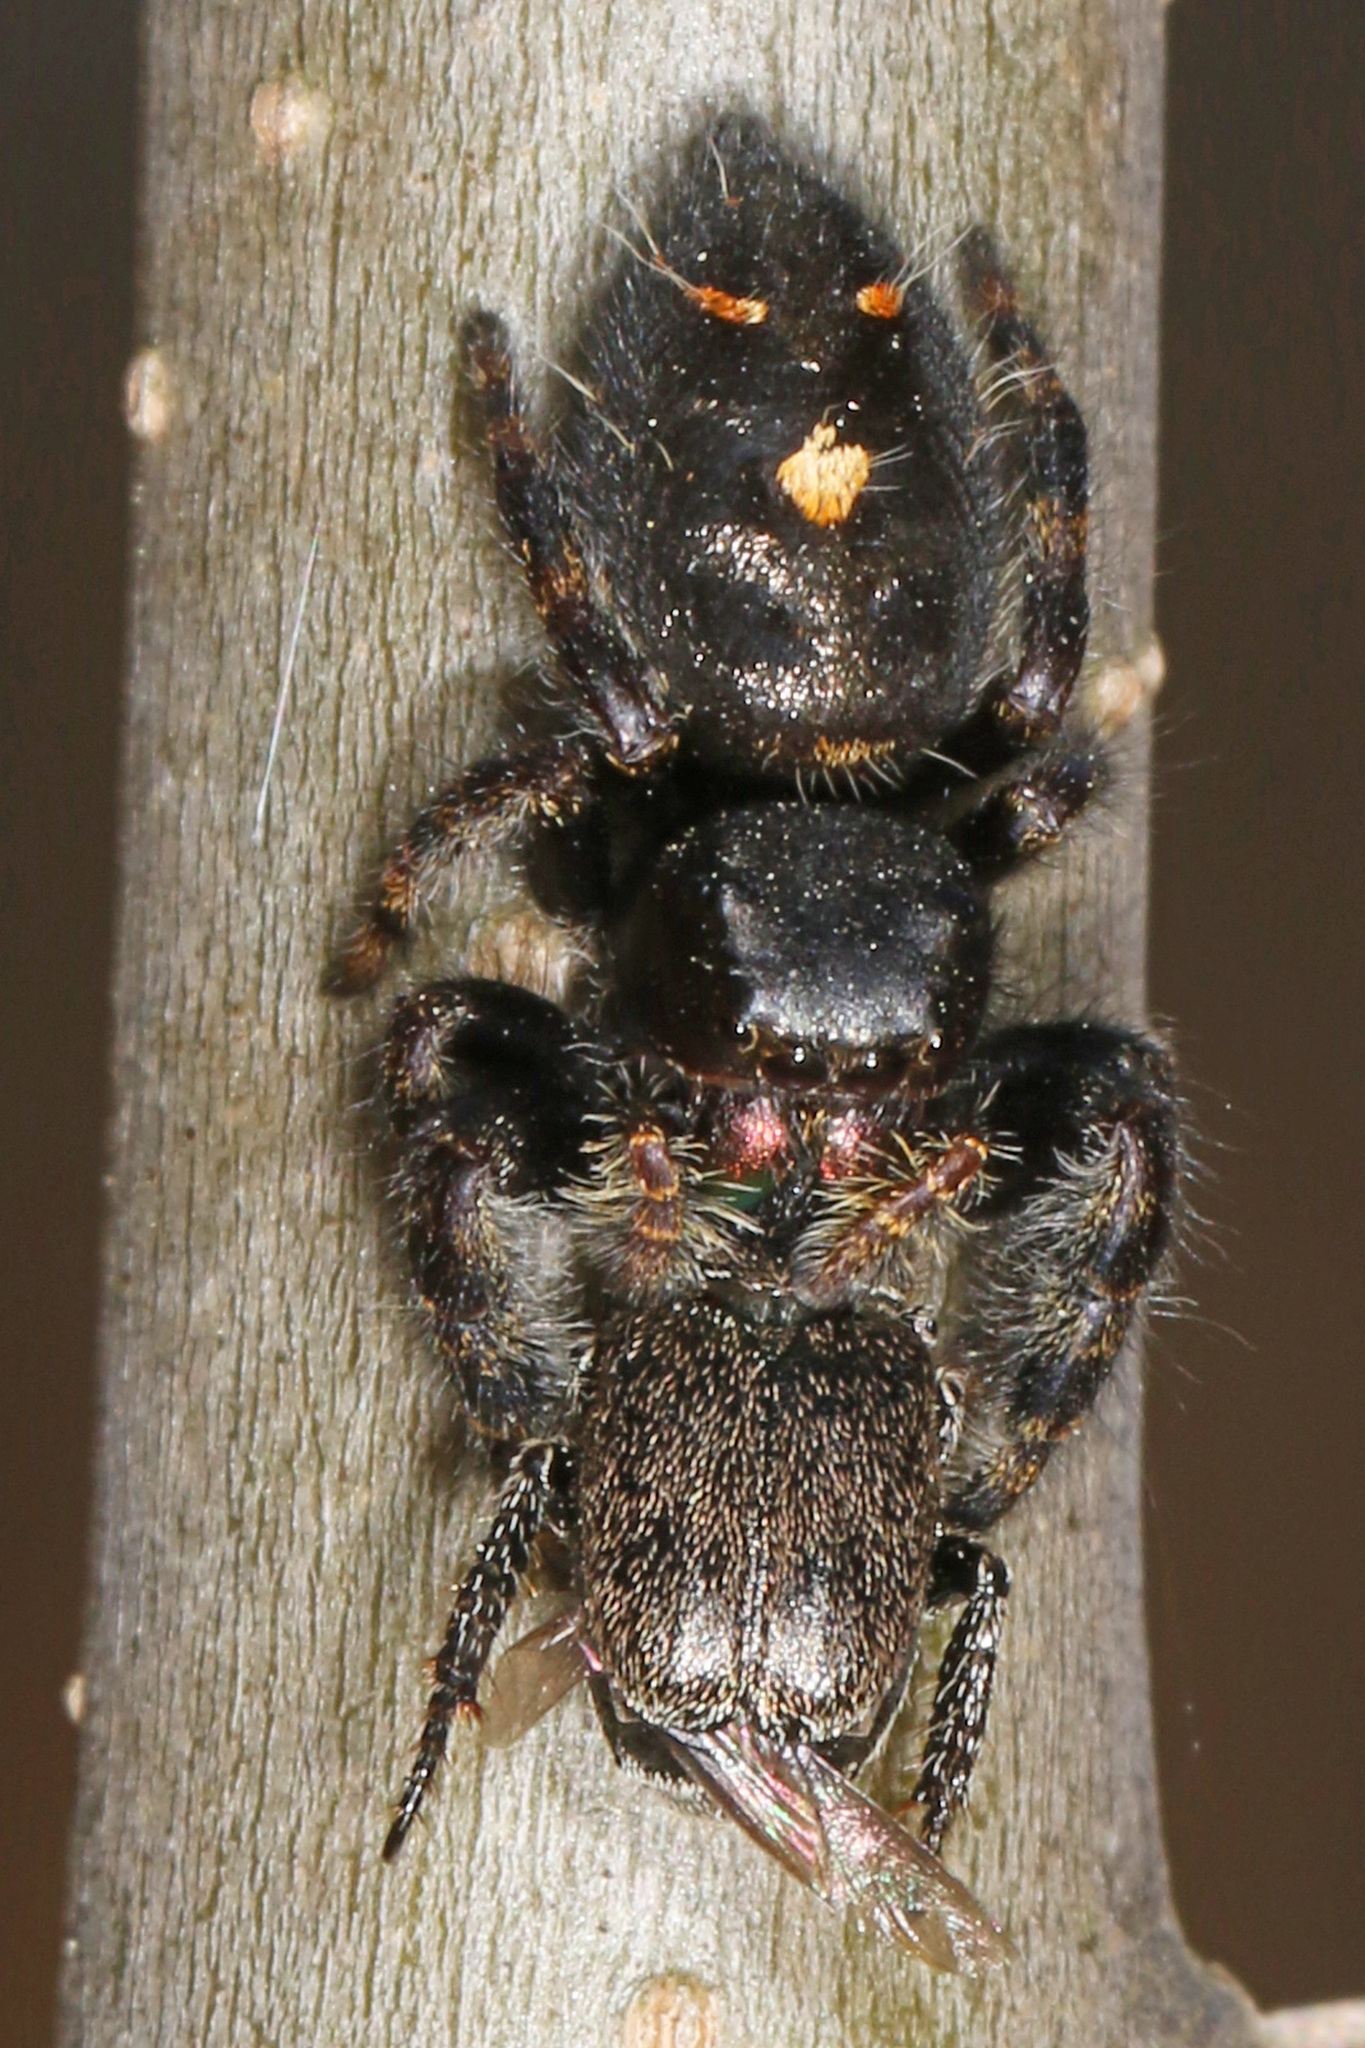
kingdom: Animalia
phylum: Arthropoda
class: Arachnida
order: Araneae
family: Salticidae
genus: Phidippus
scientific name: Phidippus audax
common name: Bold jumper
